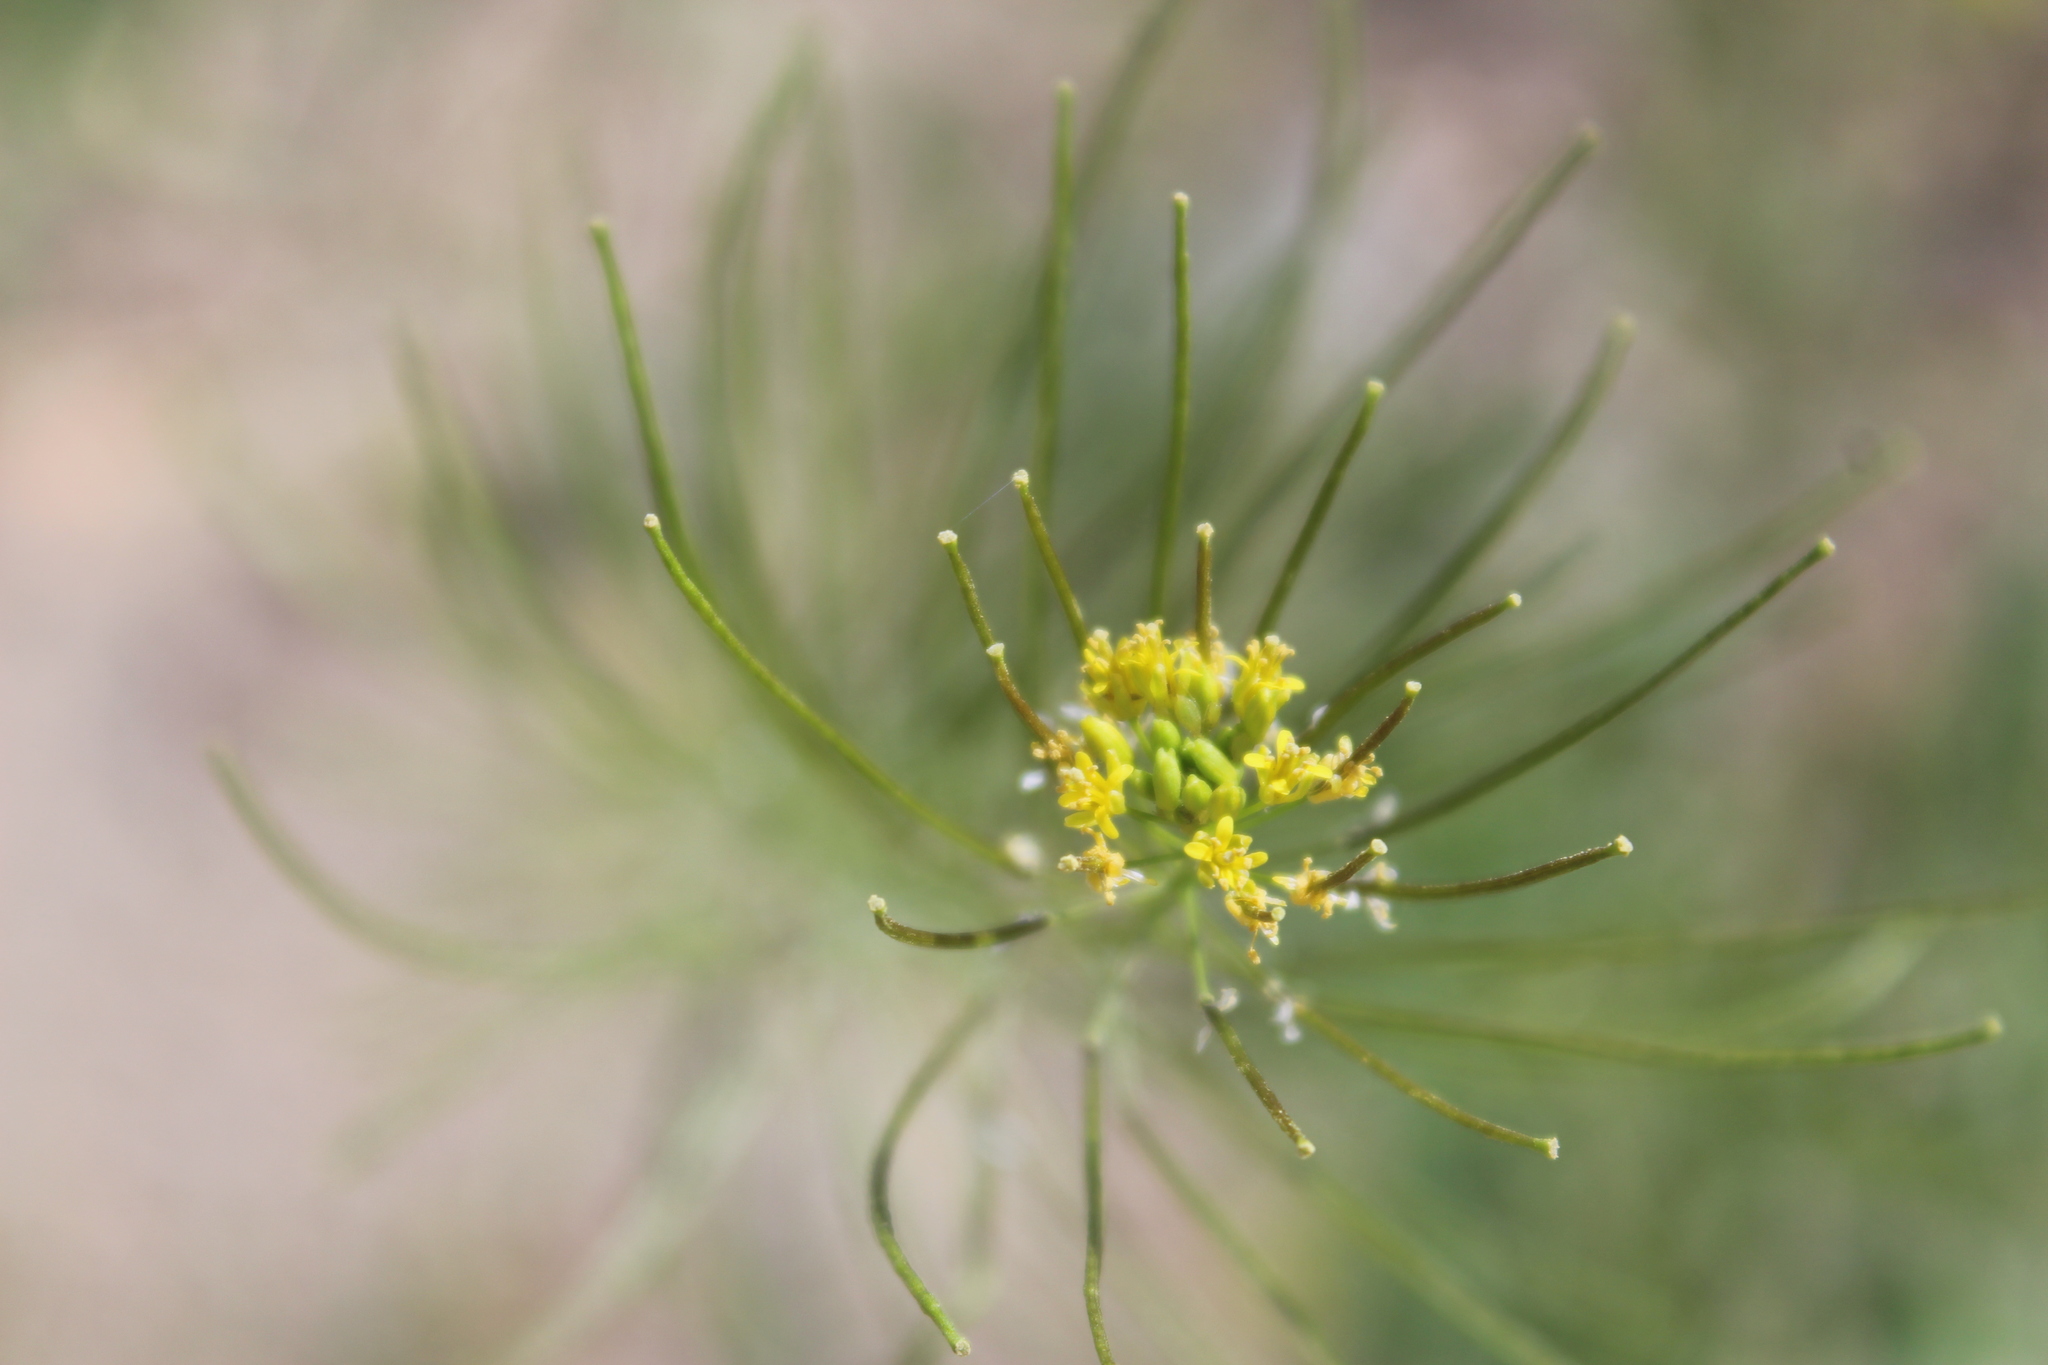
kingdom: Plantae
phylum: Tracheophyta
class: Magnoliopsida
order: Brassicales
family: Brassicaceae
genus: Sisymbrium
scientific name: Sisymbrium irio
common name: London rocket
